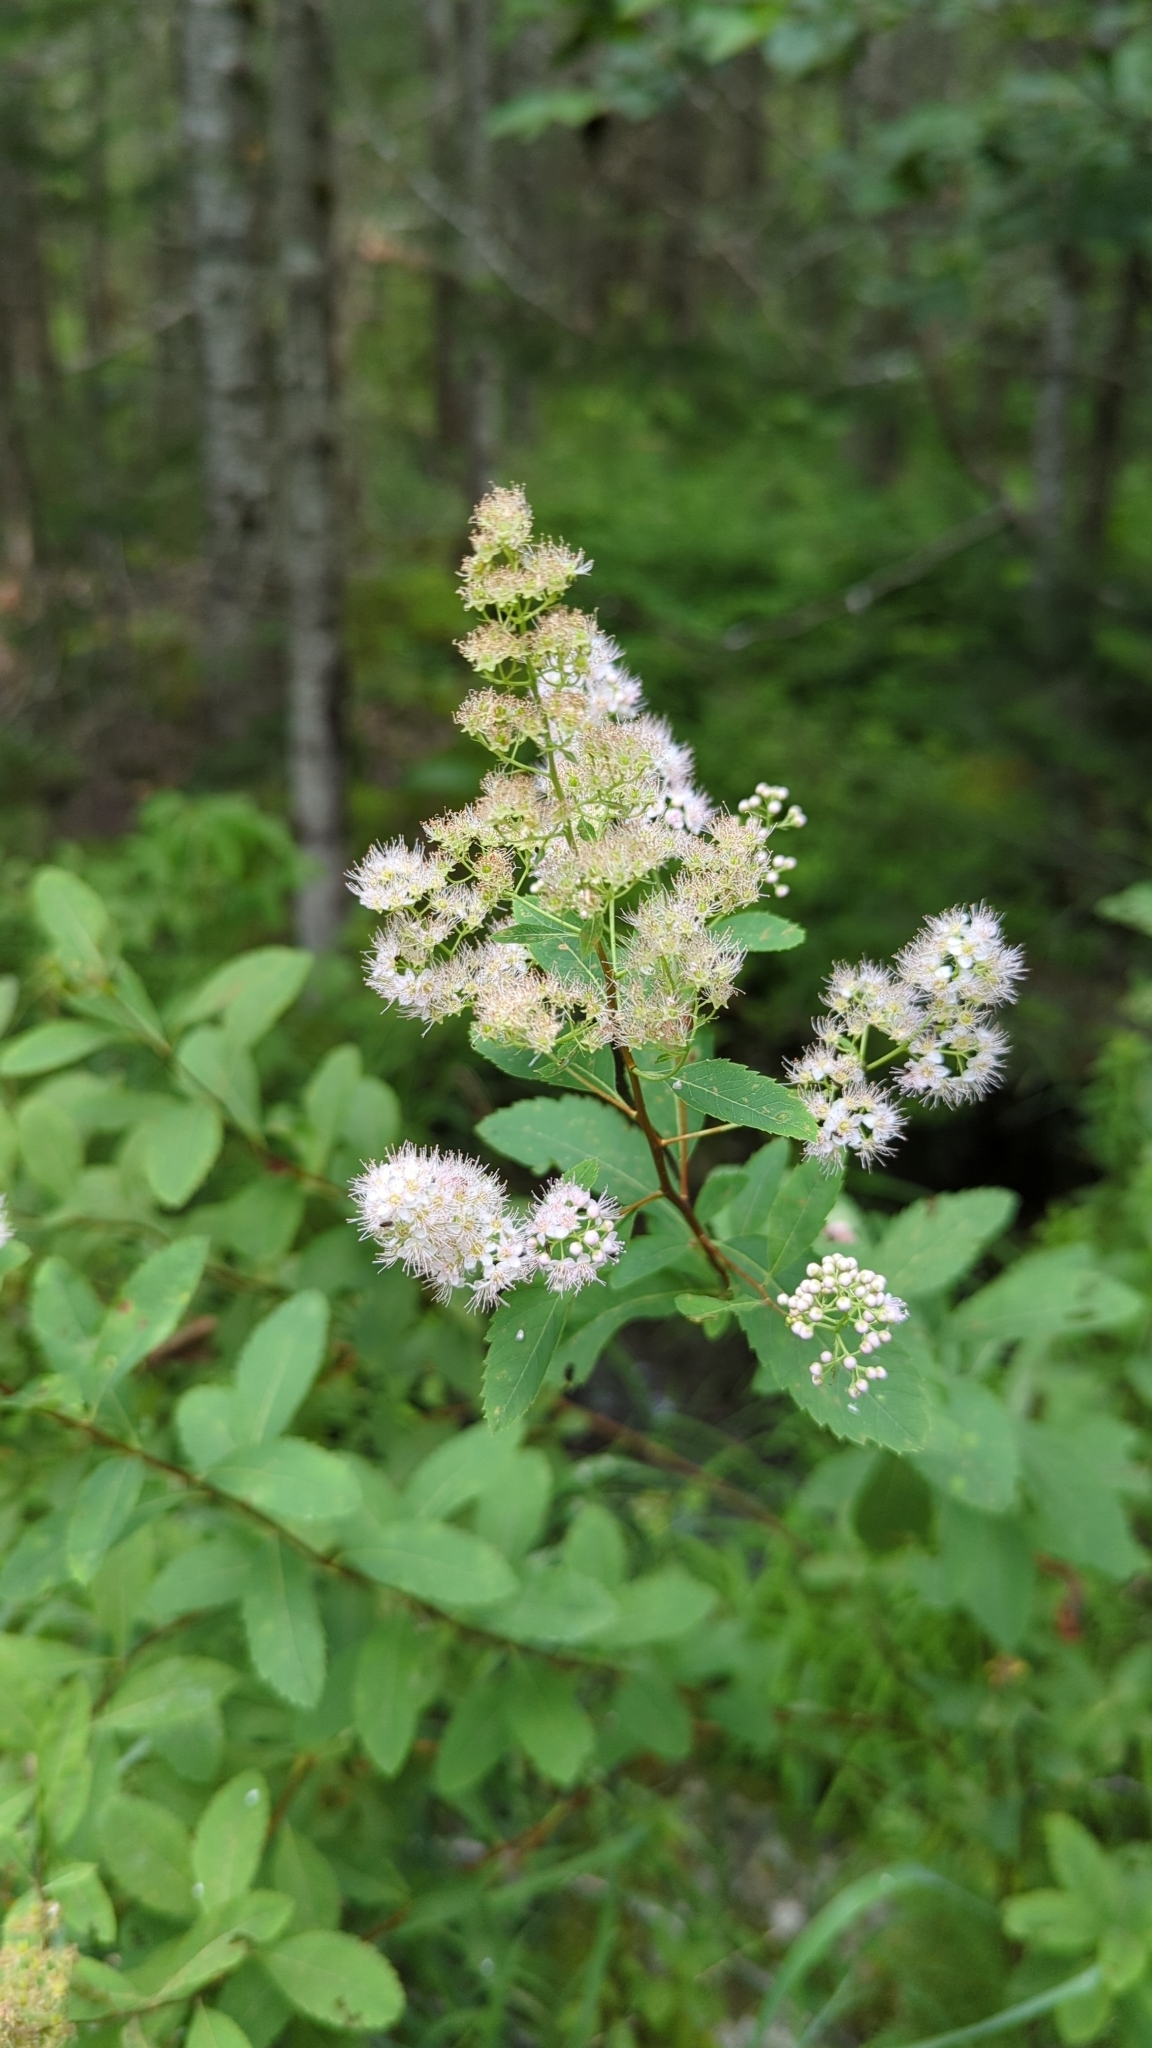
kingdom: Plantae
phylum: Tracheophyta
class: Magnoliopsida
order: Rosales
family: Rosaceae
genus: Spiraea
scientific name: Spiraea alba
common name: Pale bridewort
